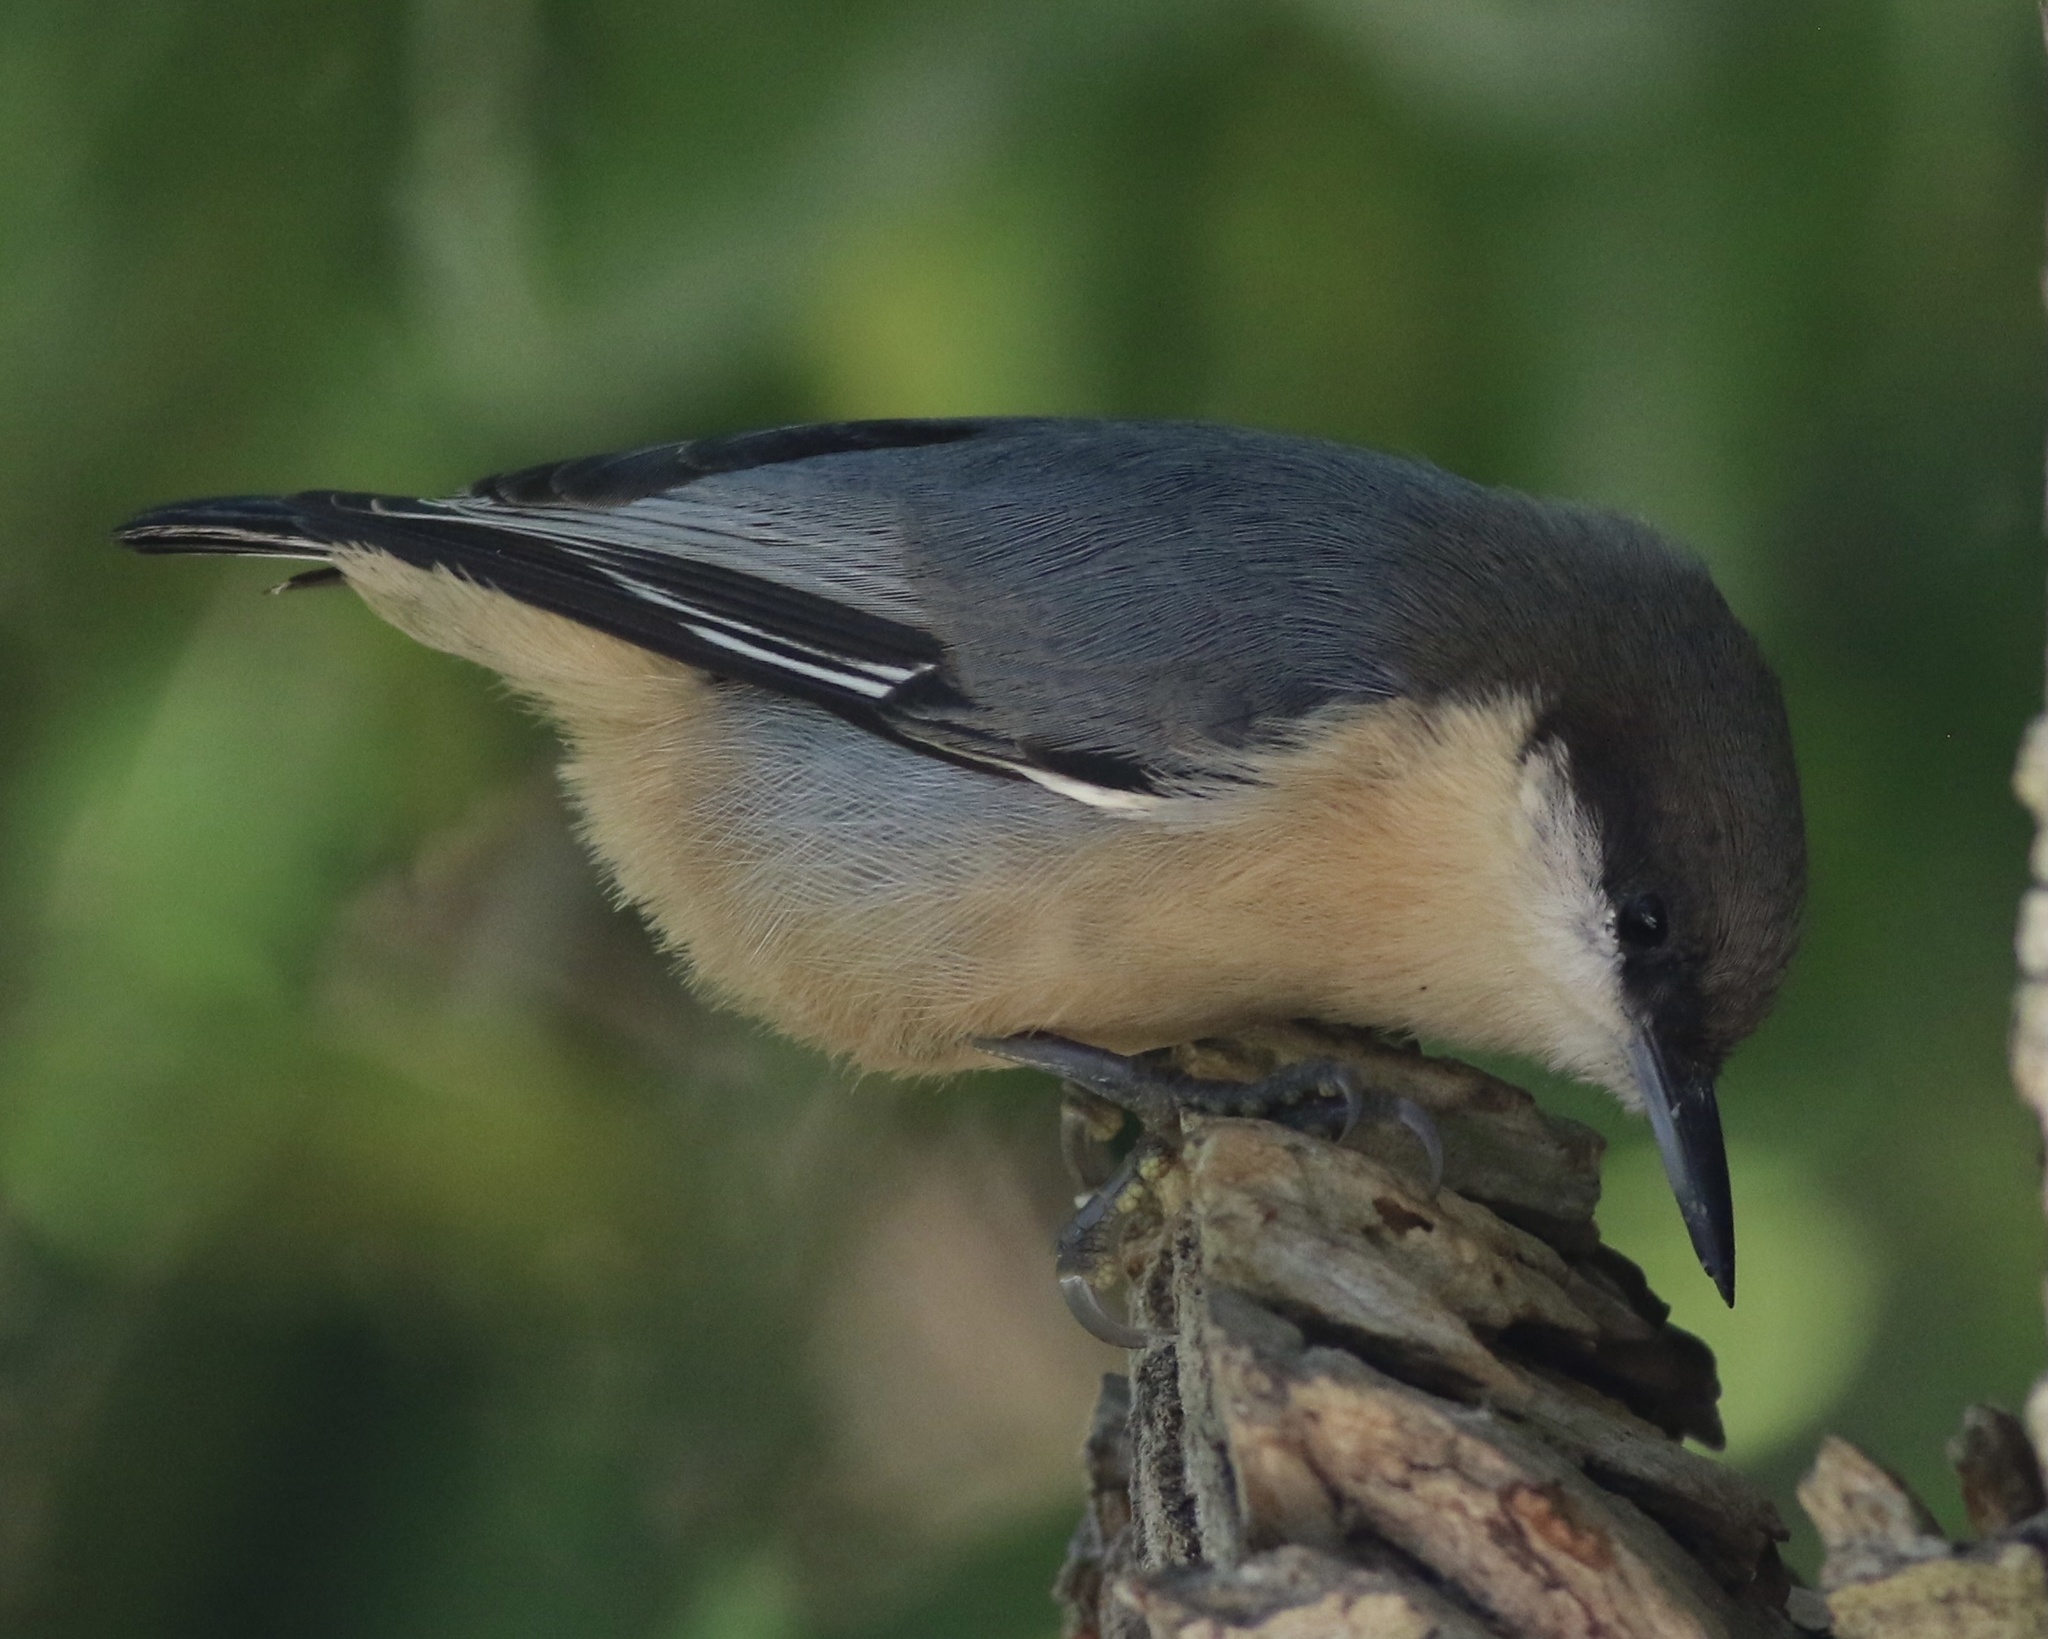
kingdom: Animalia
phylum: Chordata
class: Aves
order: Passeriformes
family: Sittidae
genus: Sitta
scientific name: Sitta pygmaea
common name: Pygmy nuthatch
